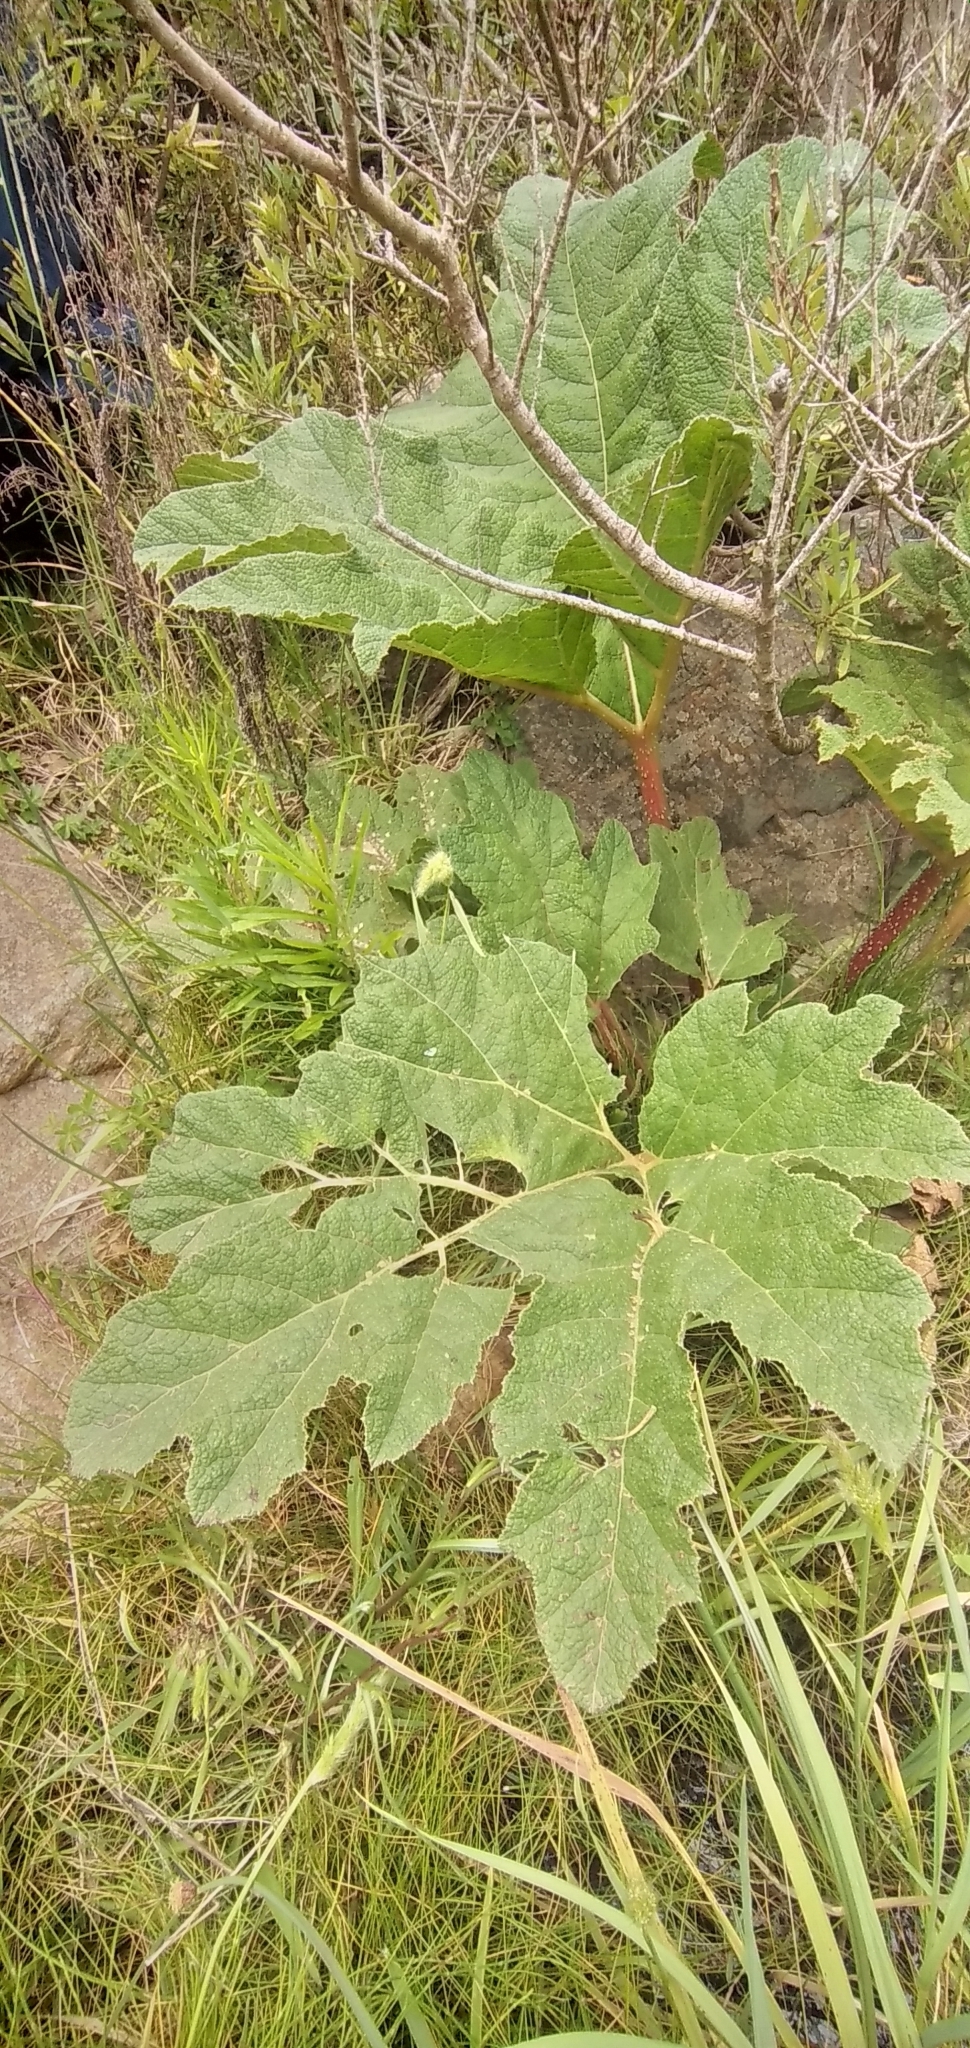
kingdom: Plantae
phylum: Tracheophyta
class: Magnoliopsida
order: Gunnerales
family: Gunneraceae
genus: Gunnera
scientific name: Gunnera tinctoria
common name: Giant-rhubarb
